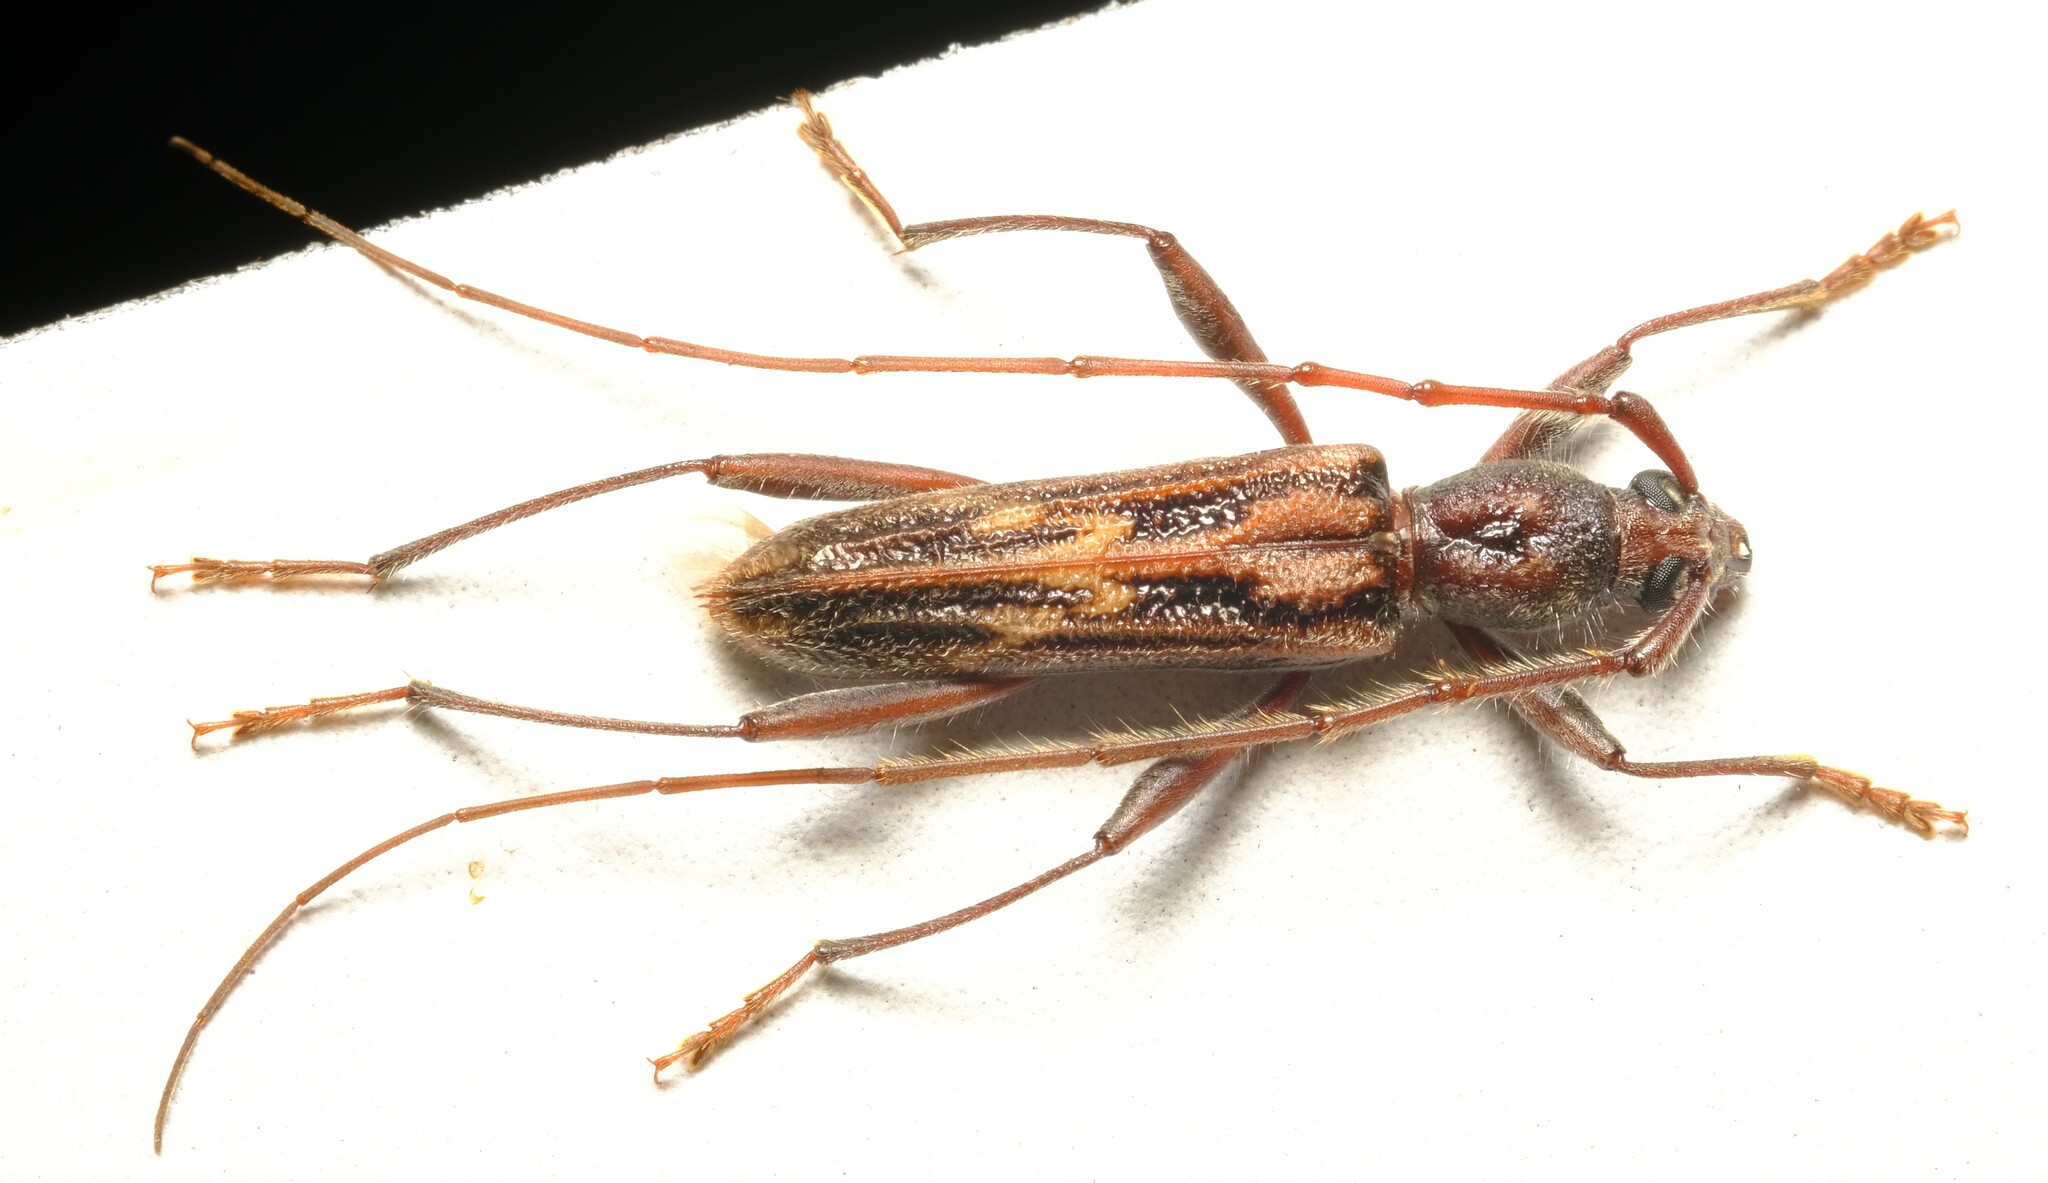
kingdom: Animalia
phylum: Arthropoda
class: Insecta
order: Coleoptera
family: Cerambycidae
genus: Aesiotyche
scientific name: Aesiotyche favosa
